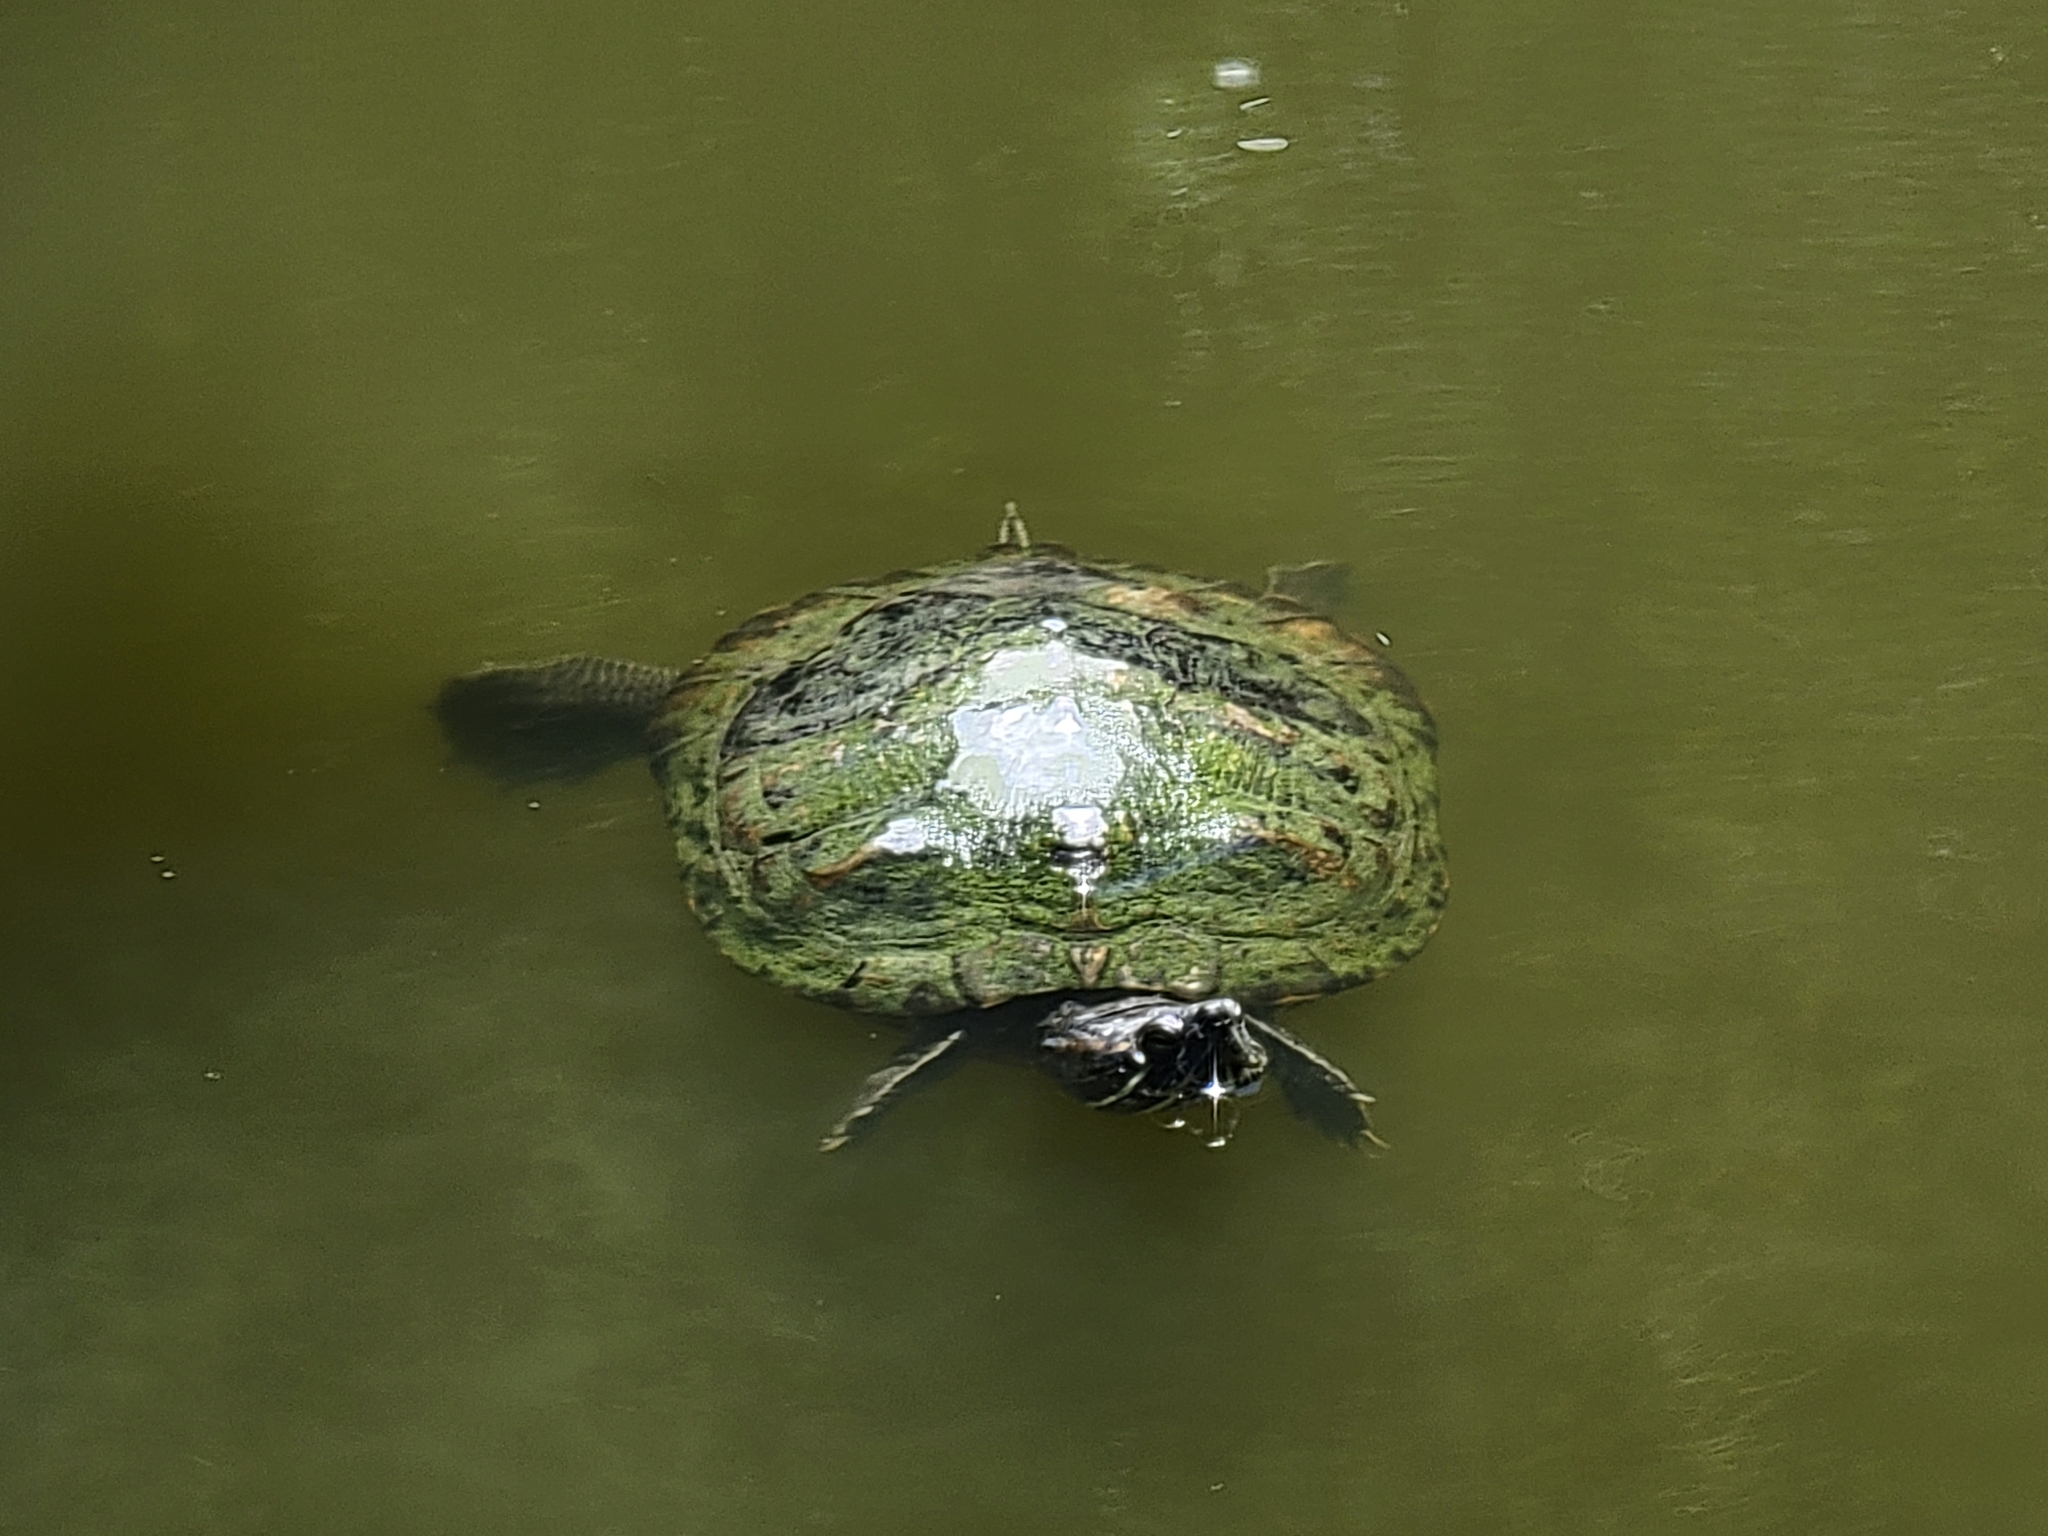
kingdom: Animalia
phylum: Chordata
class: Testudines
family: Emydidae
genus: Trachemys
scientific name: Trachemys scripta
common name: Slider
